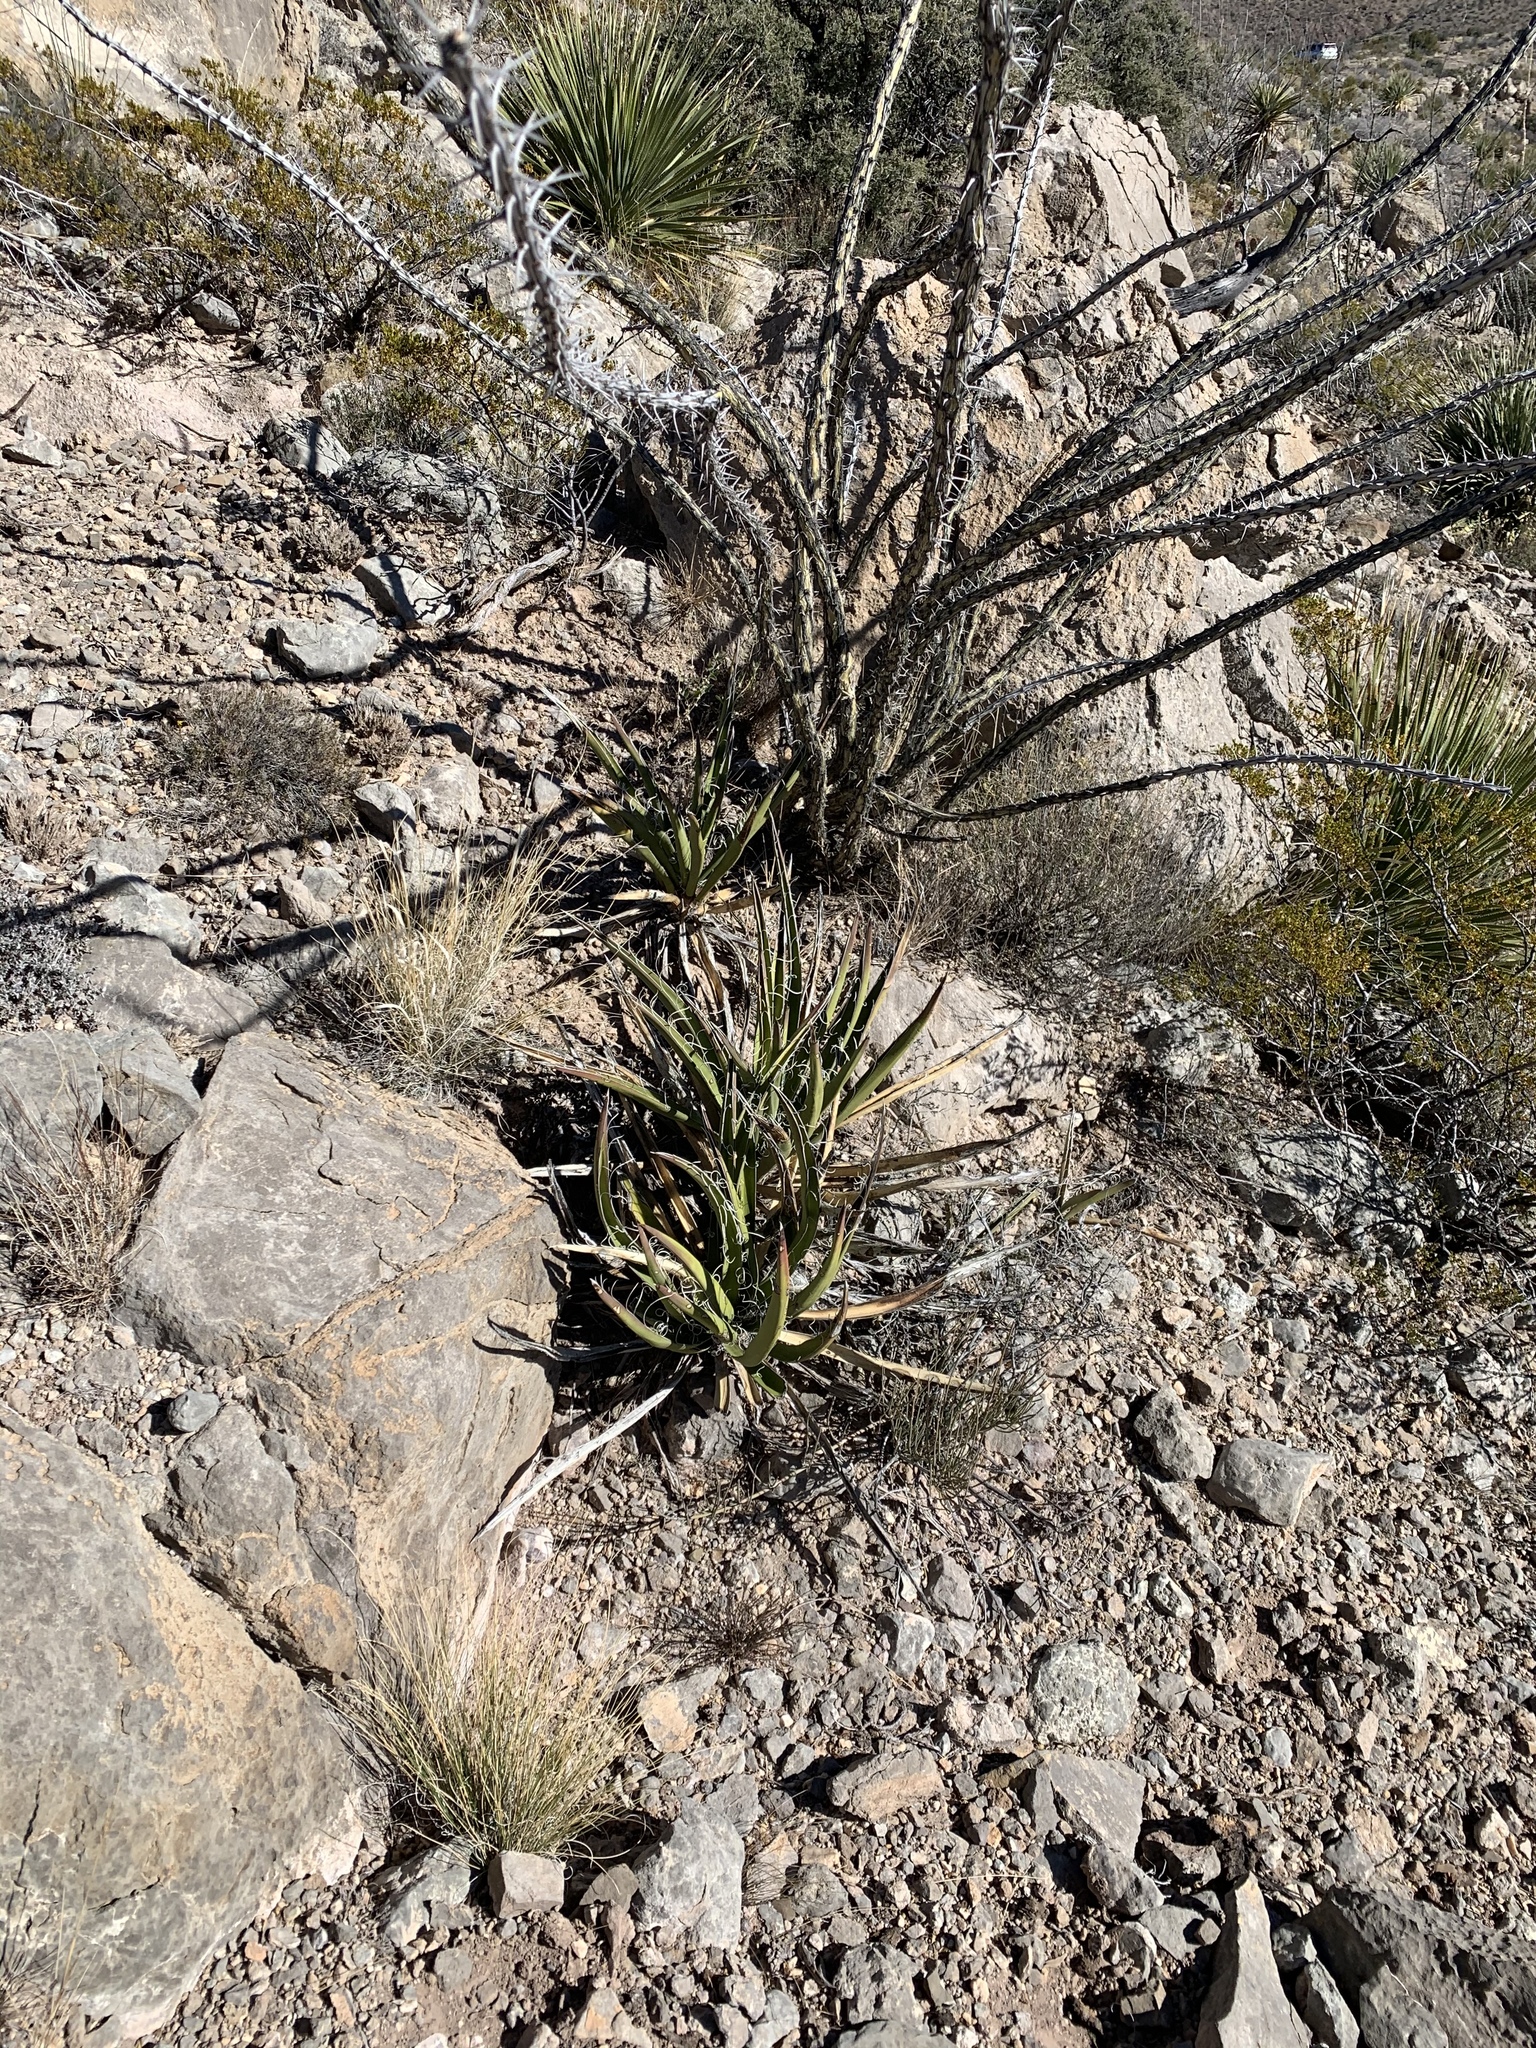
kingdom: Plantae
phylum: Tracheophyta
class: Liliopsida
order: Asparagales
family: Asparagaceae
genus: Yucca
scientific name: Yucca baccata
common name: Banana yucca
